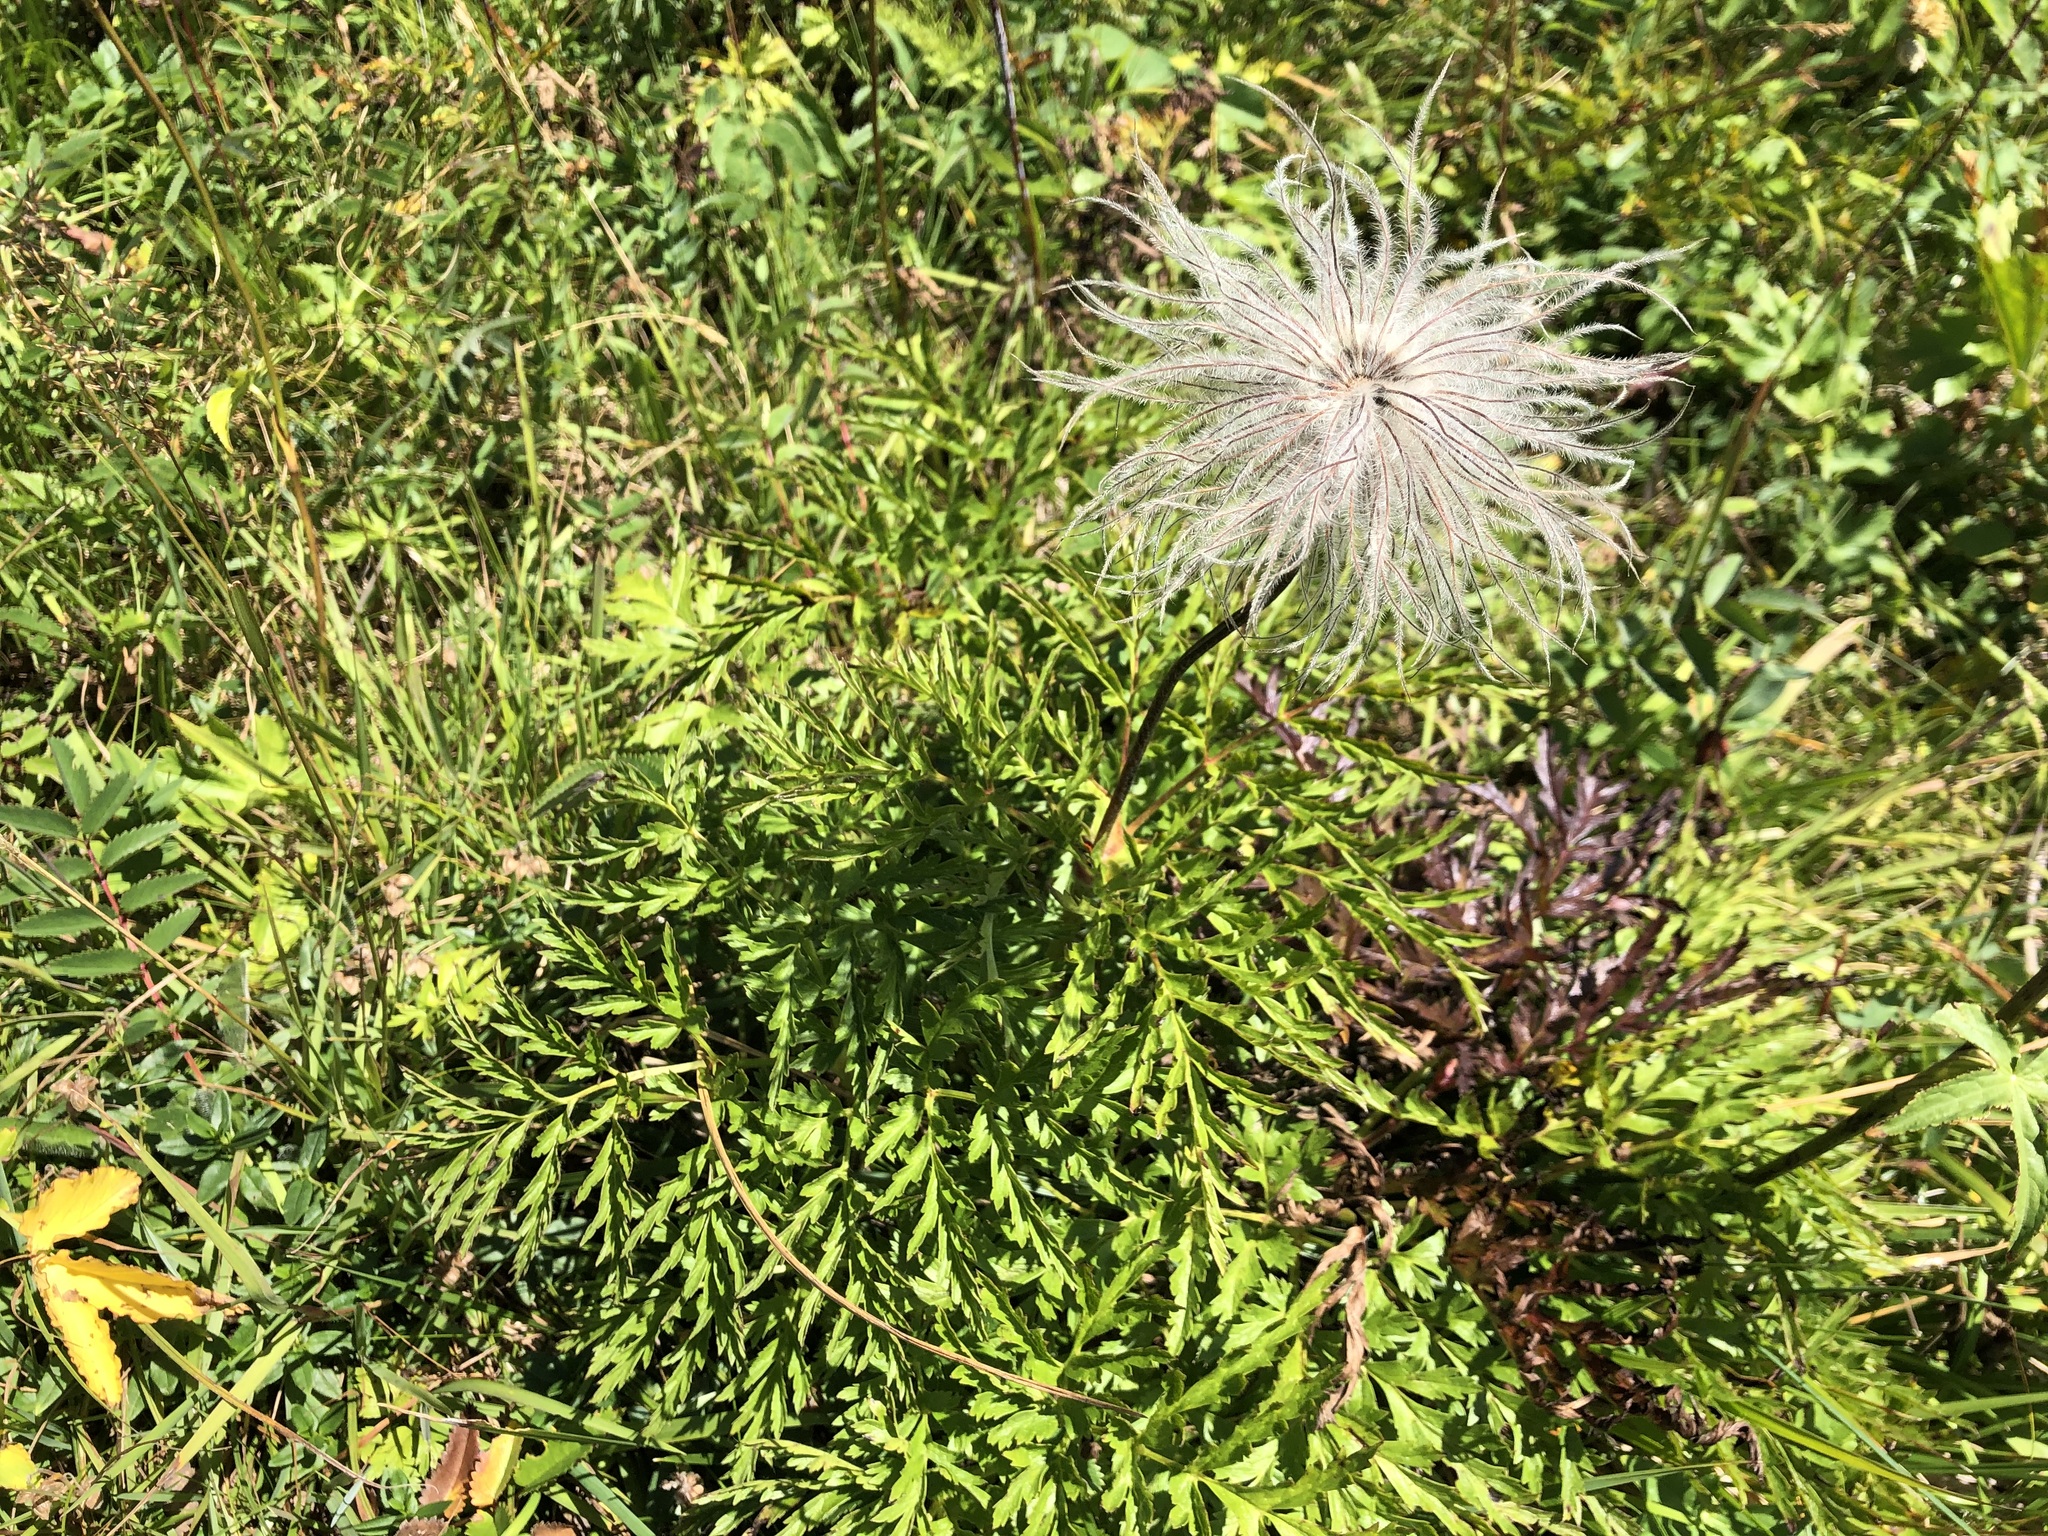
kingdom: Plantae
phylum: Tracheophyta
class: Magnoliopsida
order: Ranunculales
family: Ranunculaceae
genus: Pulsatilla
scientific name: Pulsatilla alpina
